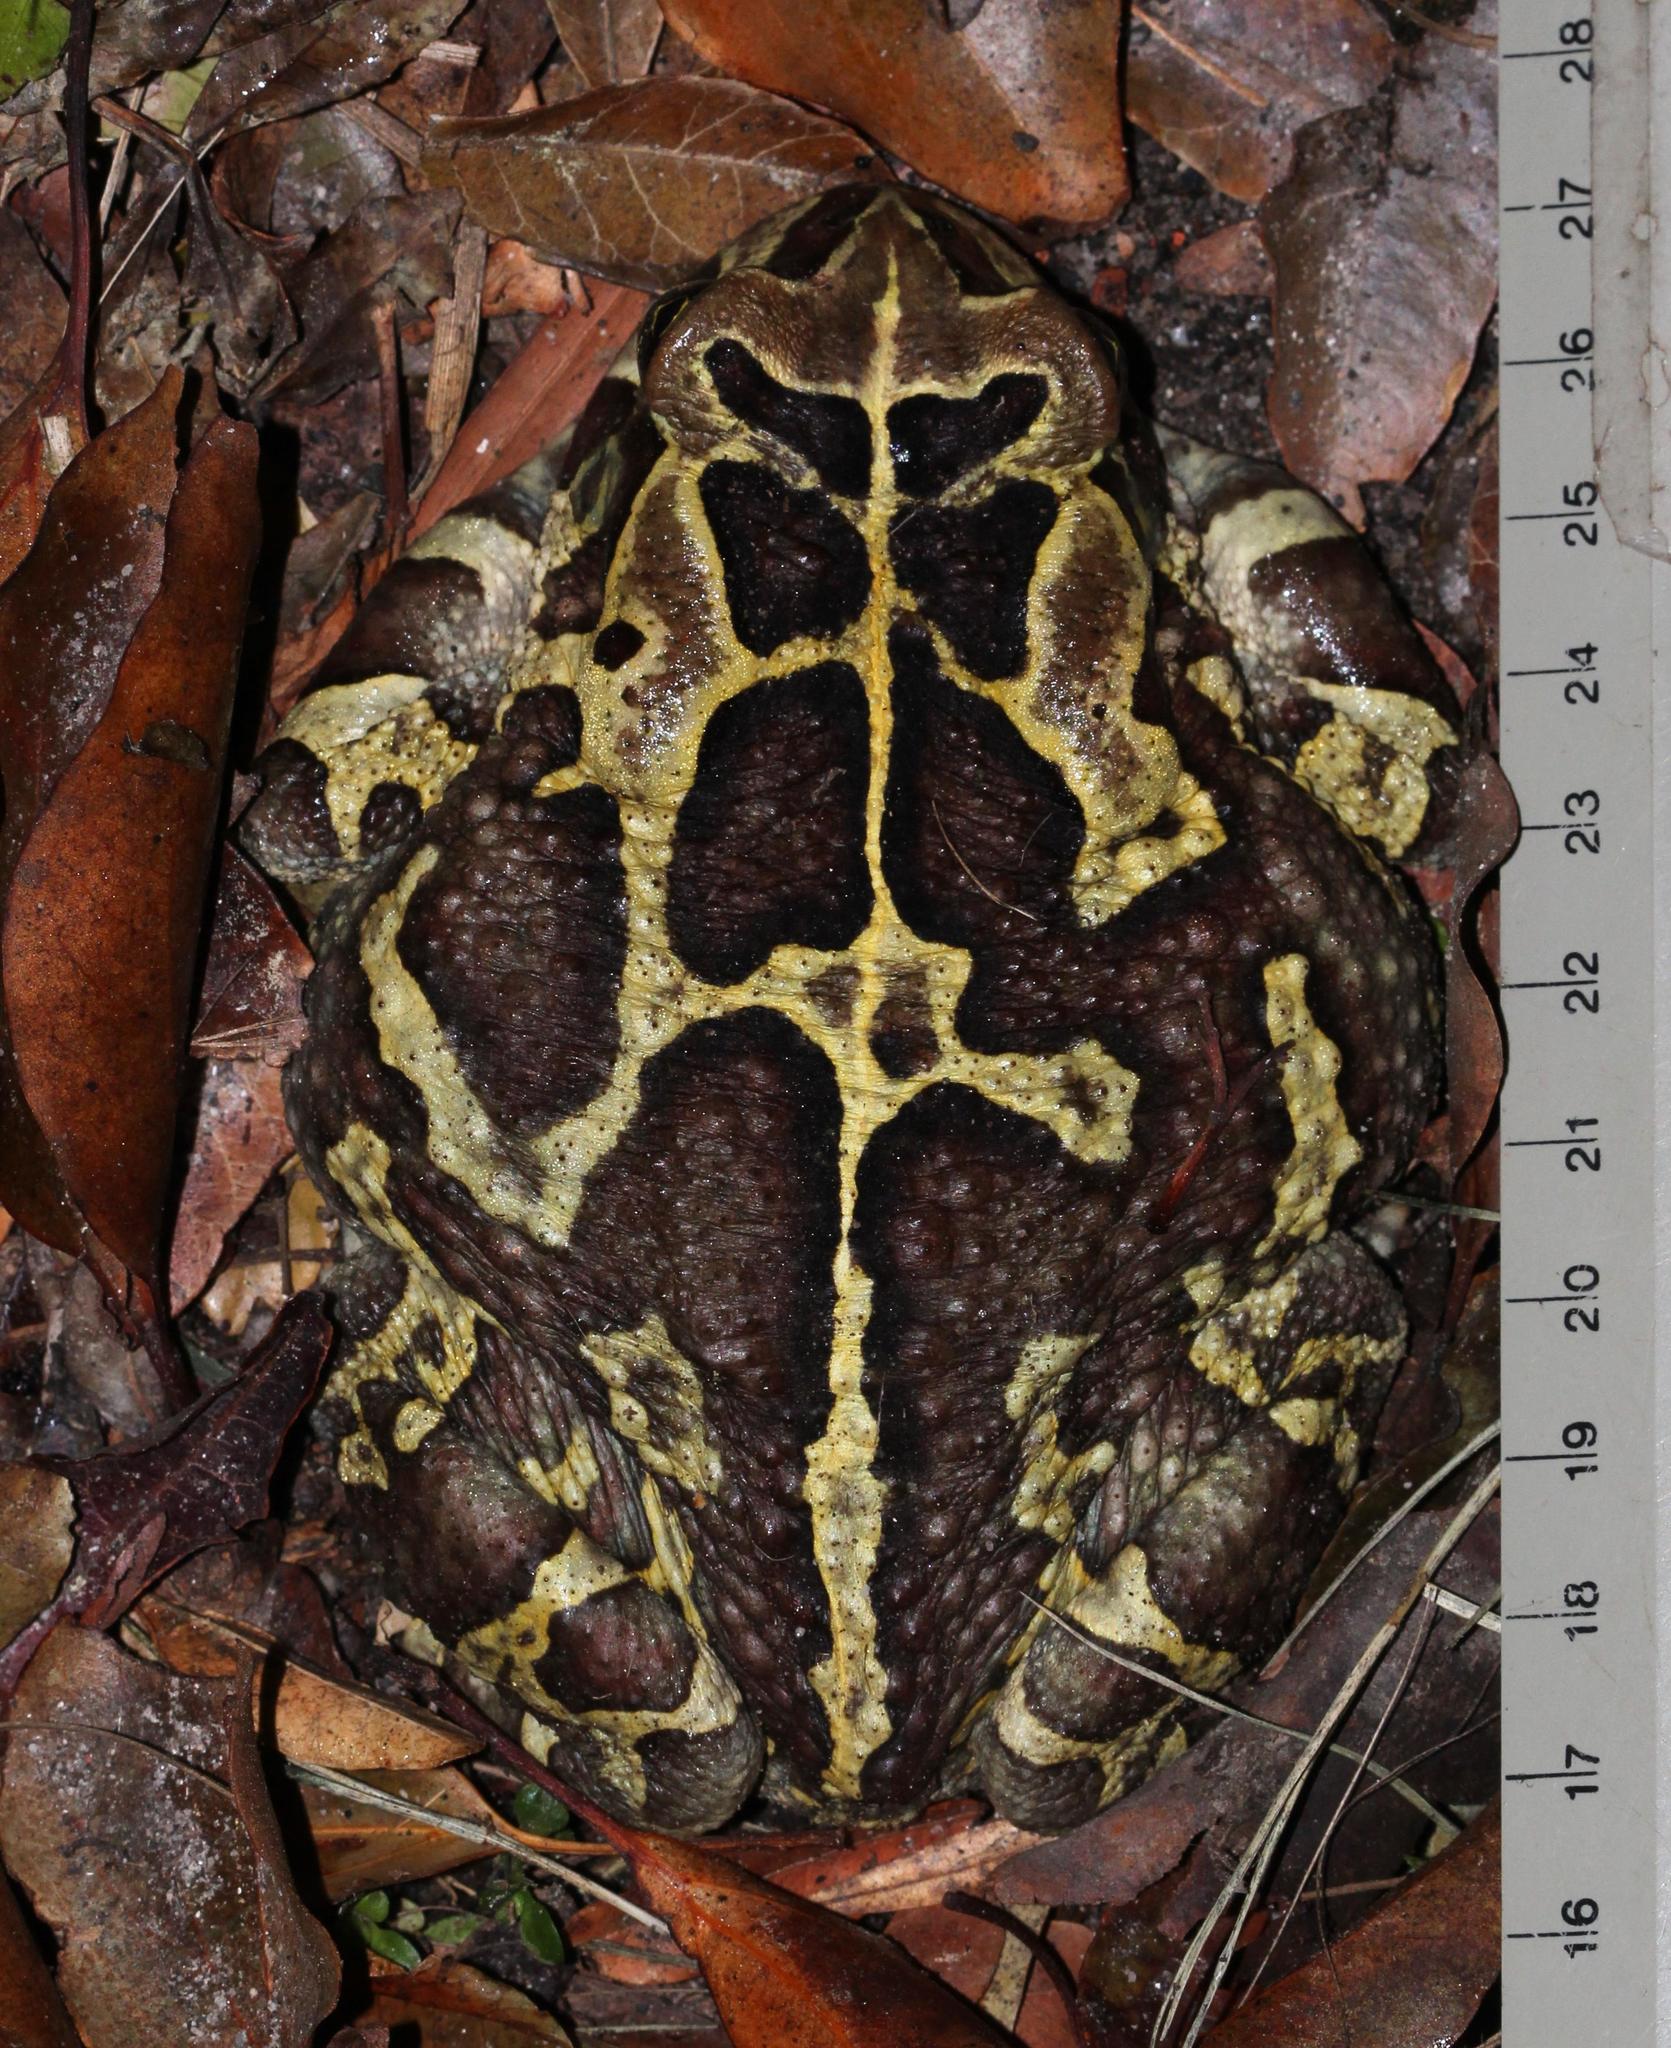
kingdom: Animalia
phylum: Chordata
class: Amphibia
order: Anura
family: Bufonidae
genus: Sclerophrys
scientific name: Sclerophrys pantherina
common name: Panther toad
